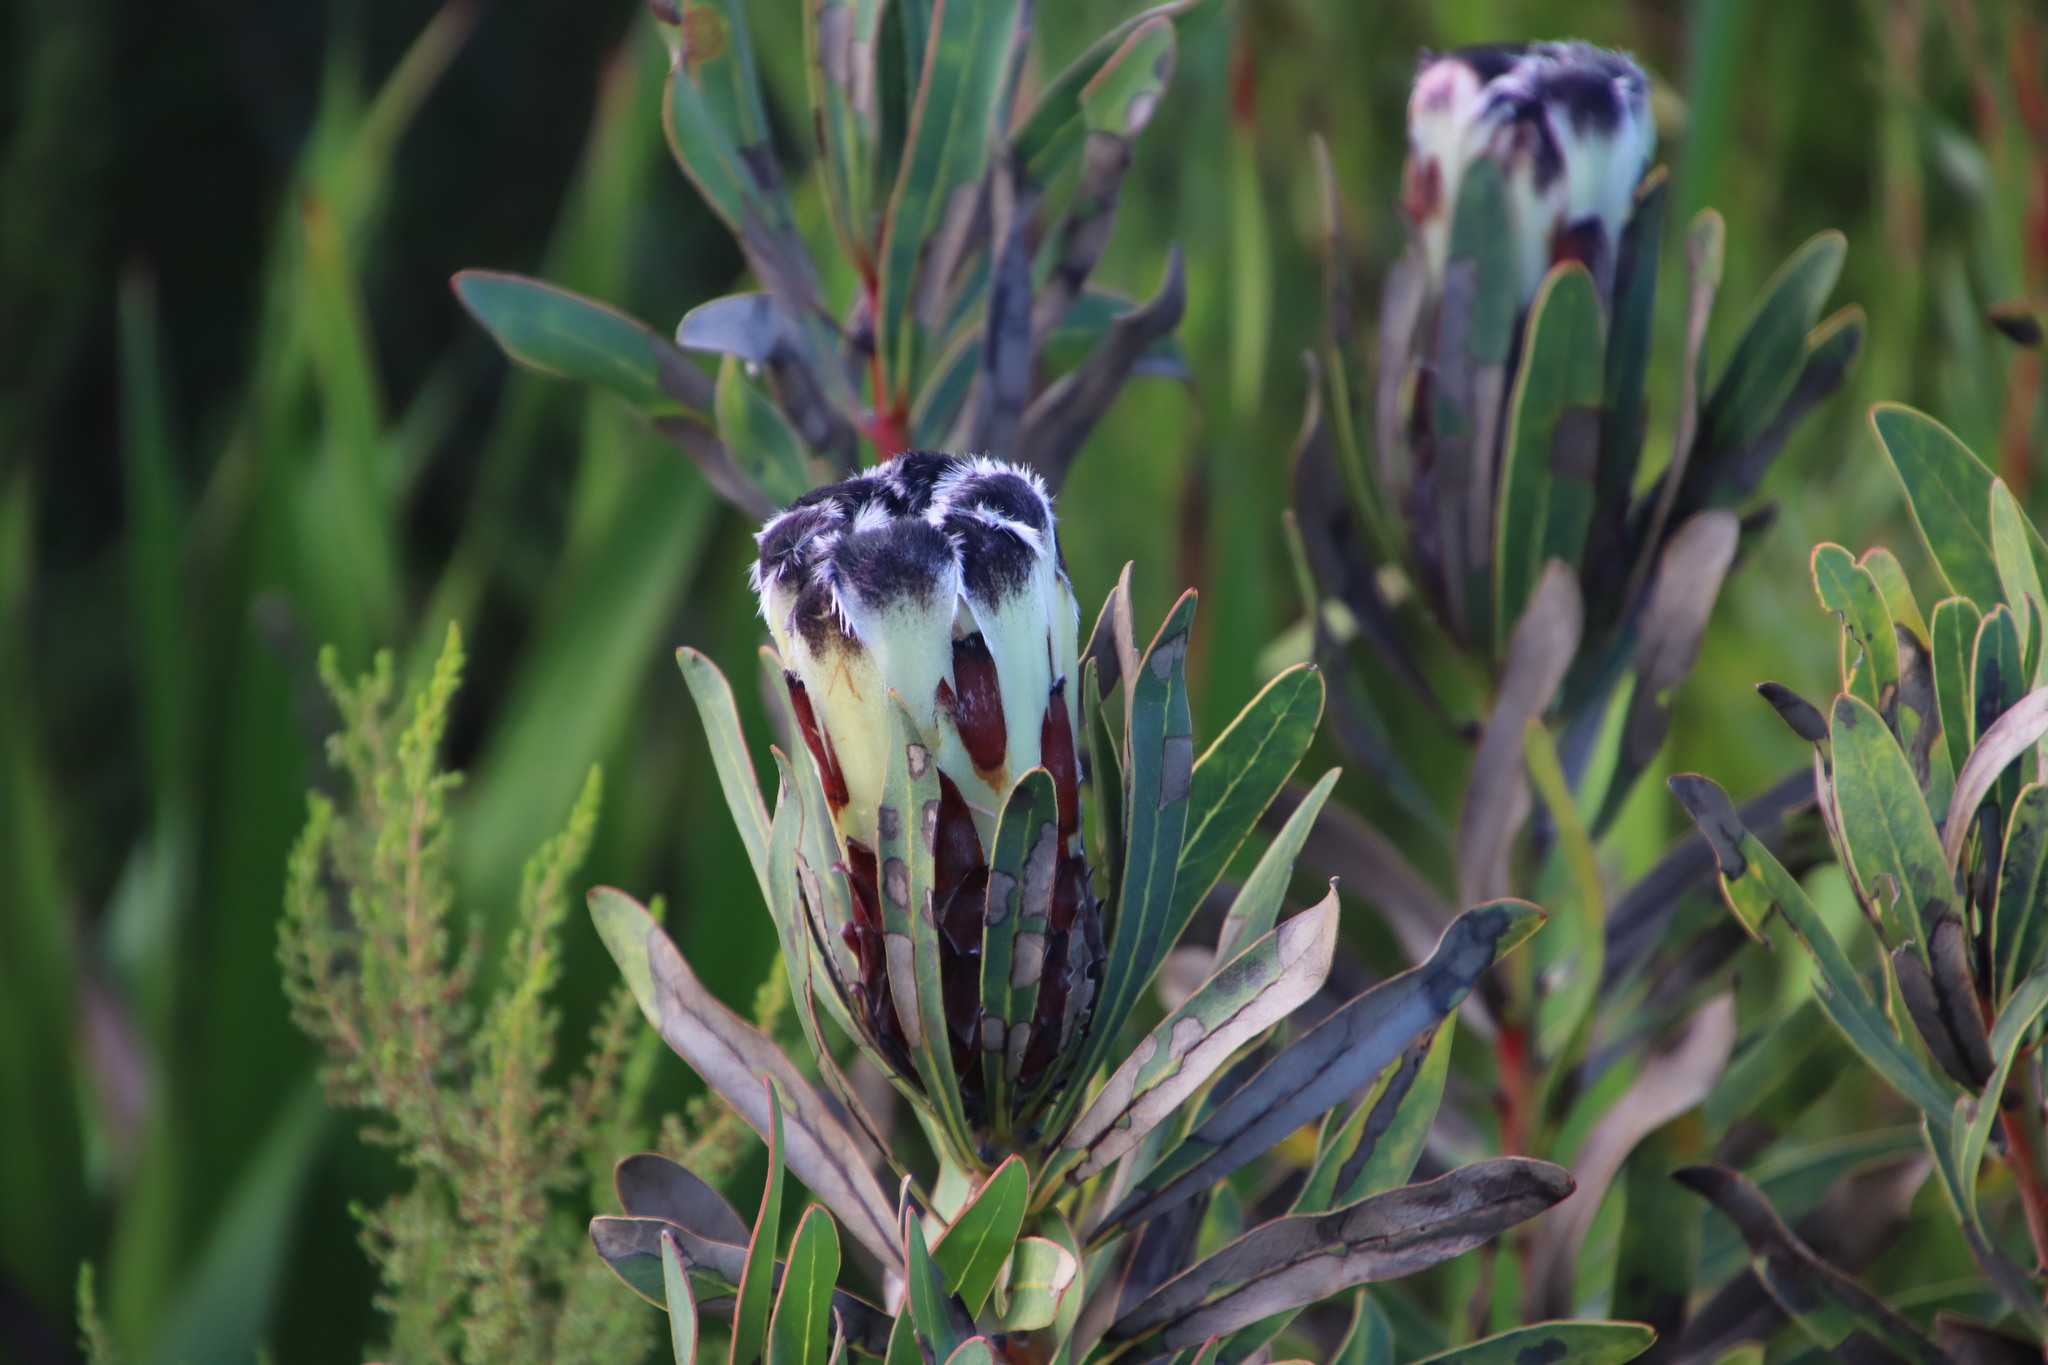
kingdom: Plantae
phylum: Tracheophyta
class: Magnoliopsida
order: Proteales
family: Proteaceae
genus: Protea
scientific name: Protea lepidocarpodendron
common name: Black-bearded protea
